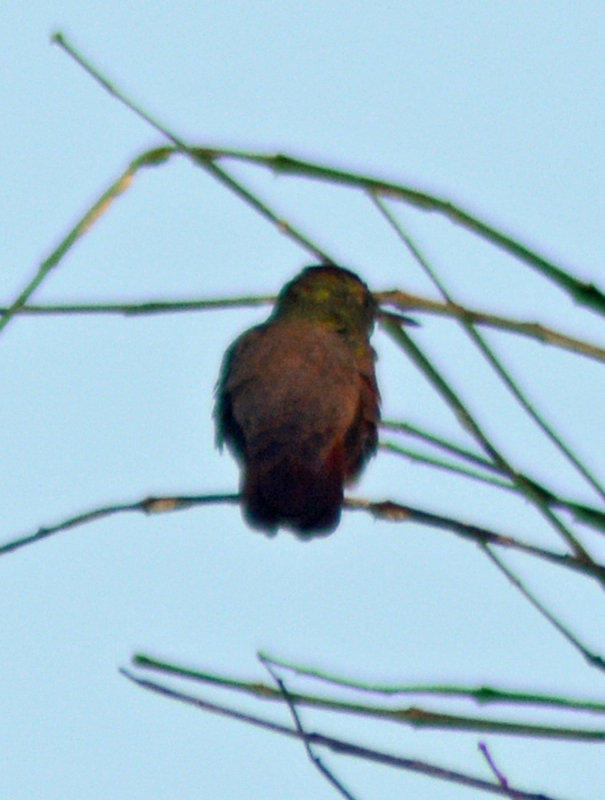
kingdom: Animalia
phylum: Chordata
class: Aves
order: Apodiformes
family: Trochilidae
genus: Saucerottia
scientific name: Saucerottia beryllina
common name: Berylline hummingbird
